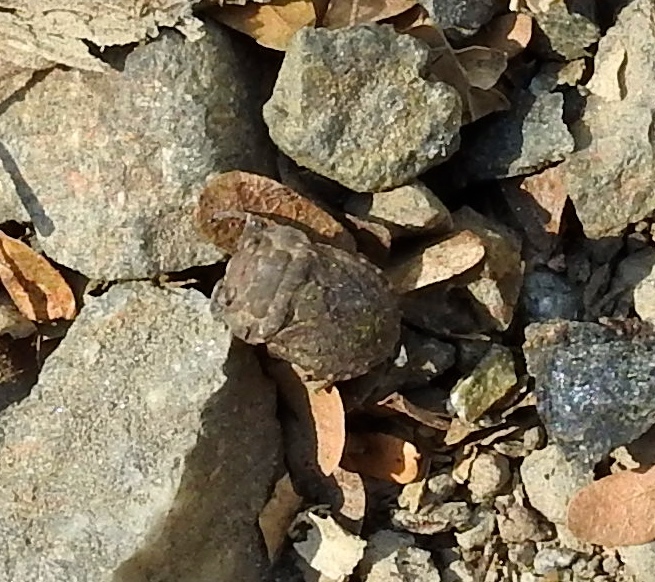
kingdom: Animalia
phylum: Arthropoda
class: Insecta
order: Hemiptera
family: Gelastocoridae
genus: Nerthra
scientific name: Nerthra spangleri
